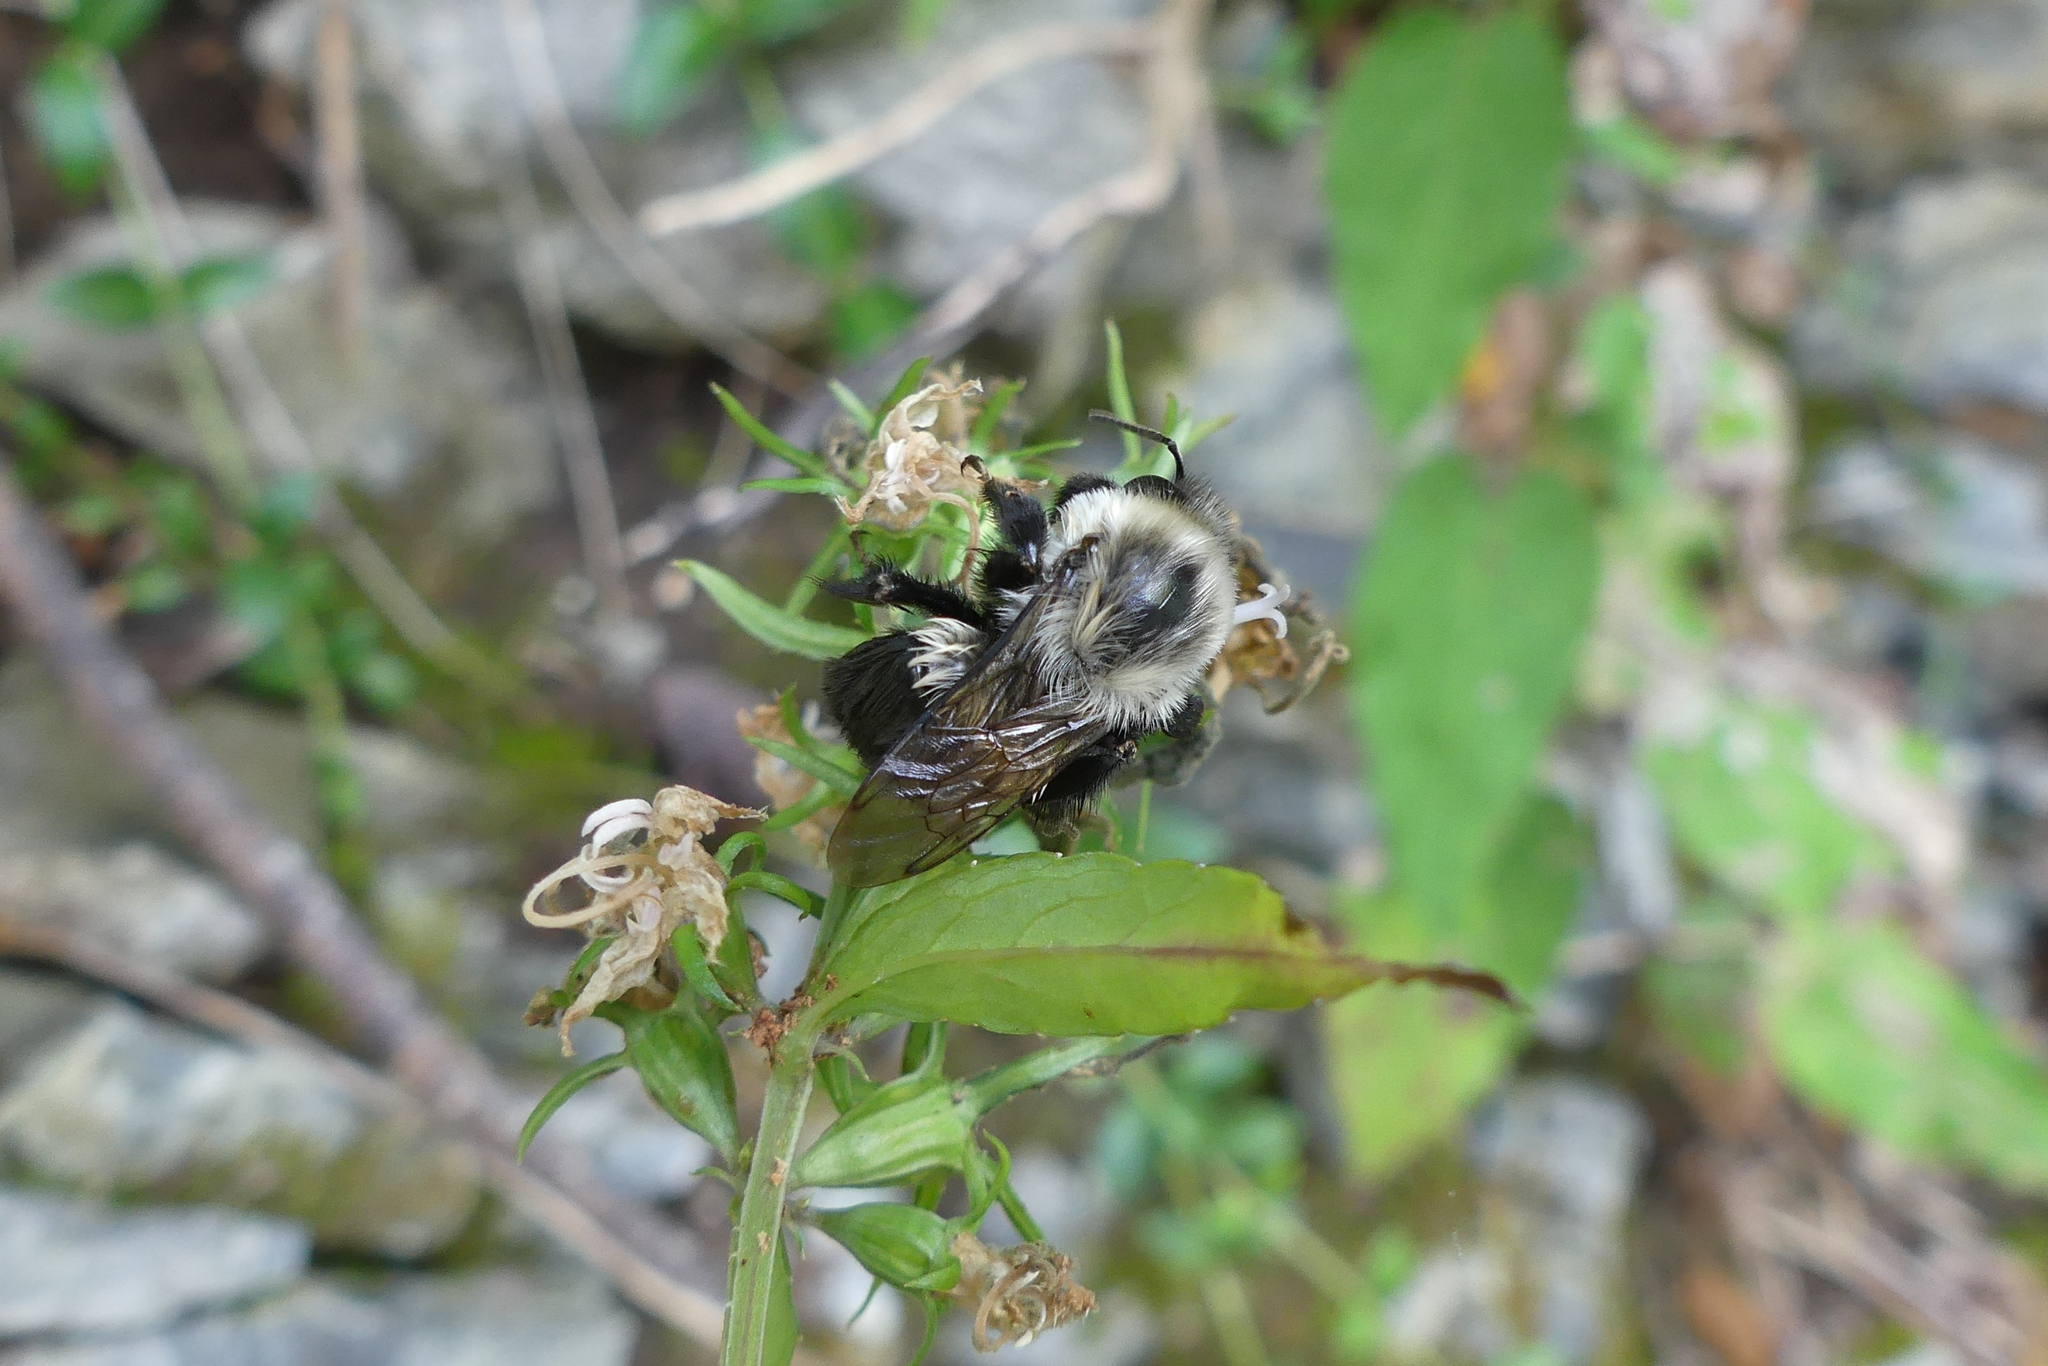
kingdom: Animalia
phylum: Arthropoda
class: Insecta
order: Hymenoptera
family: Apidae
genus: Bombus
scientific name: Bombus impatiens
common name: Common eastern bumble bee
